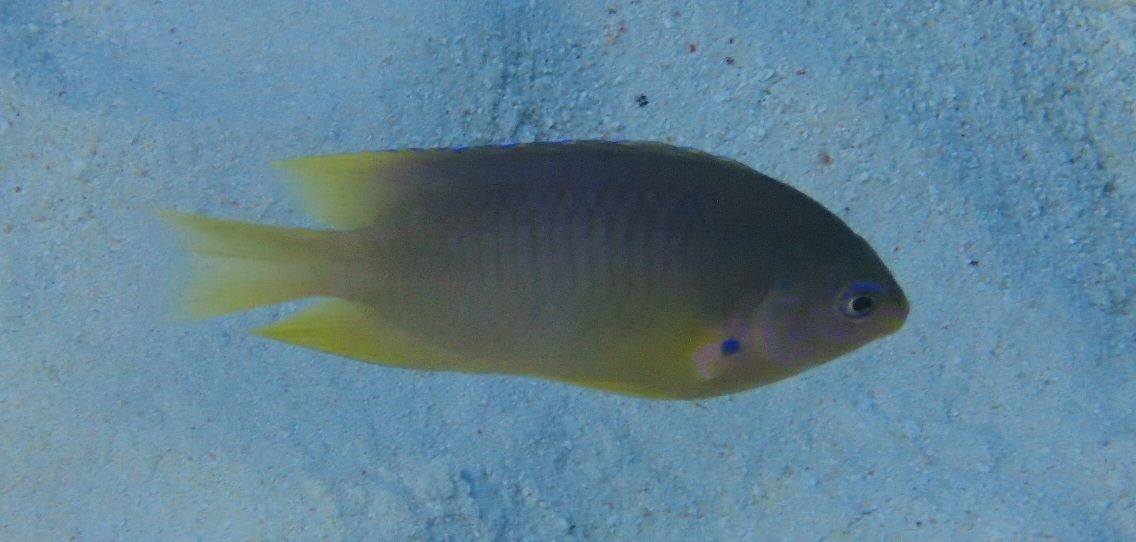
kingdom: Animalia
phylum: Chordata
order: Perciformes
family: Pomacentridae
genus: Pomacentrus
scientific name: Pomacentrus amboinensis
